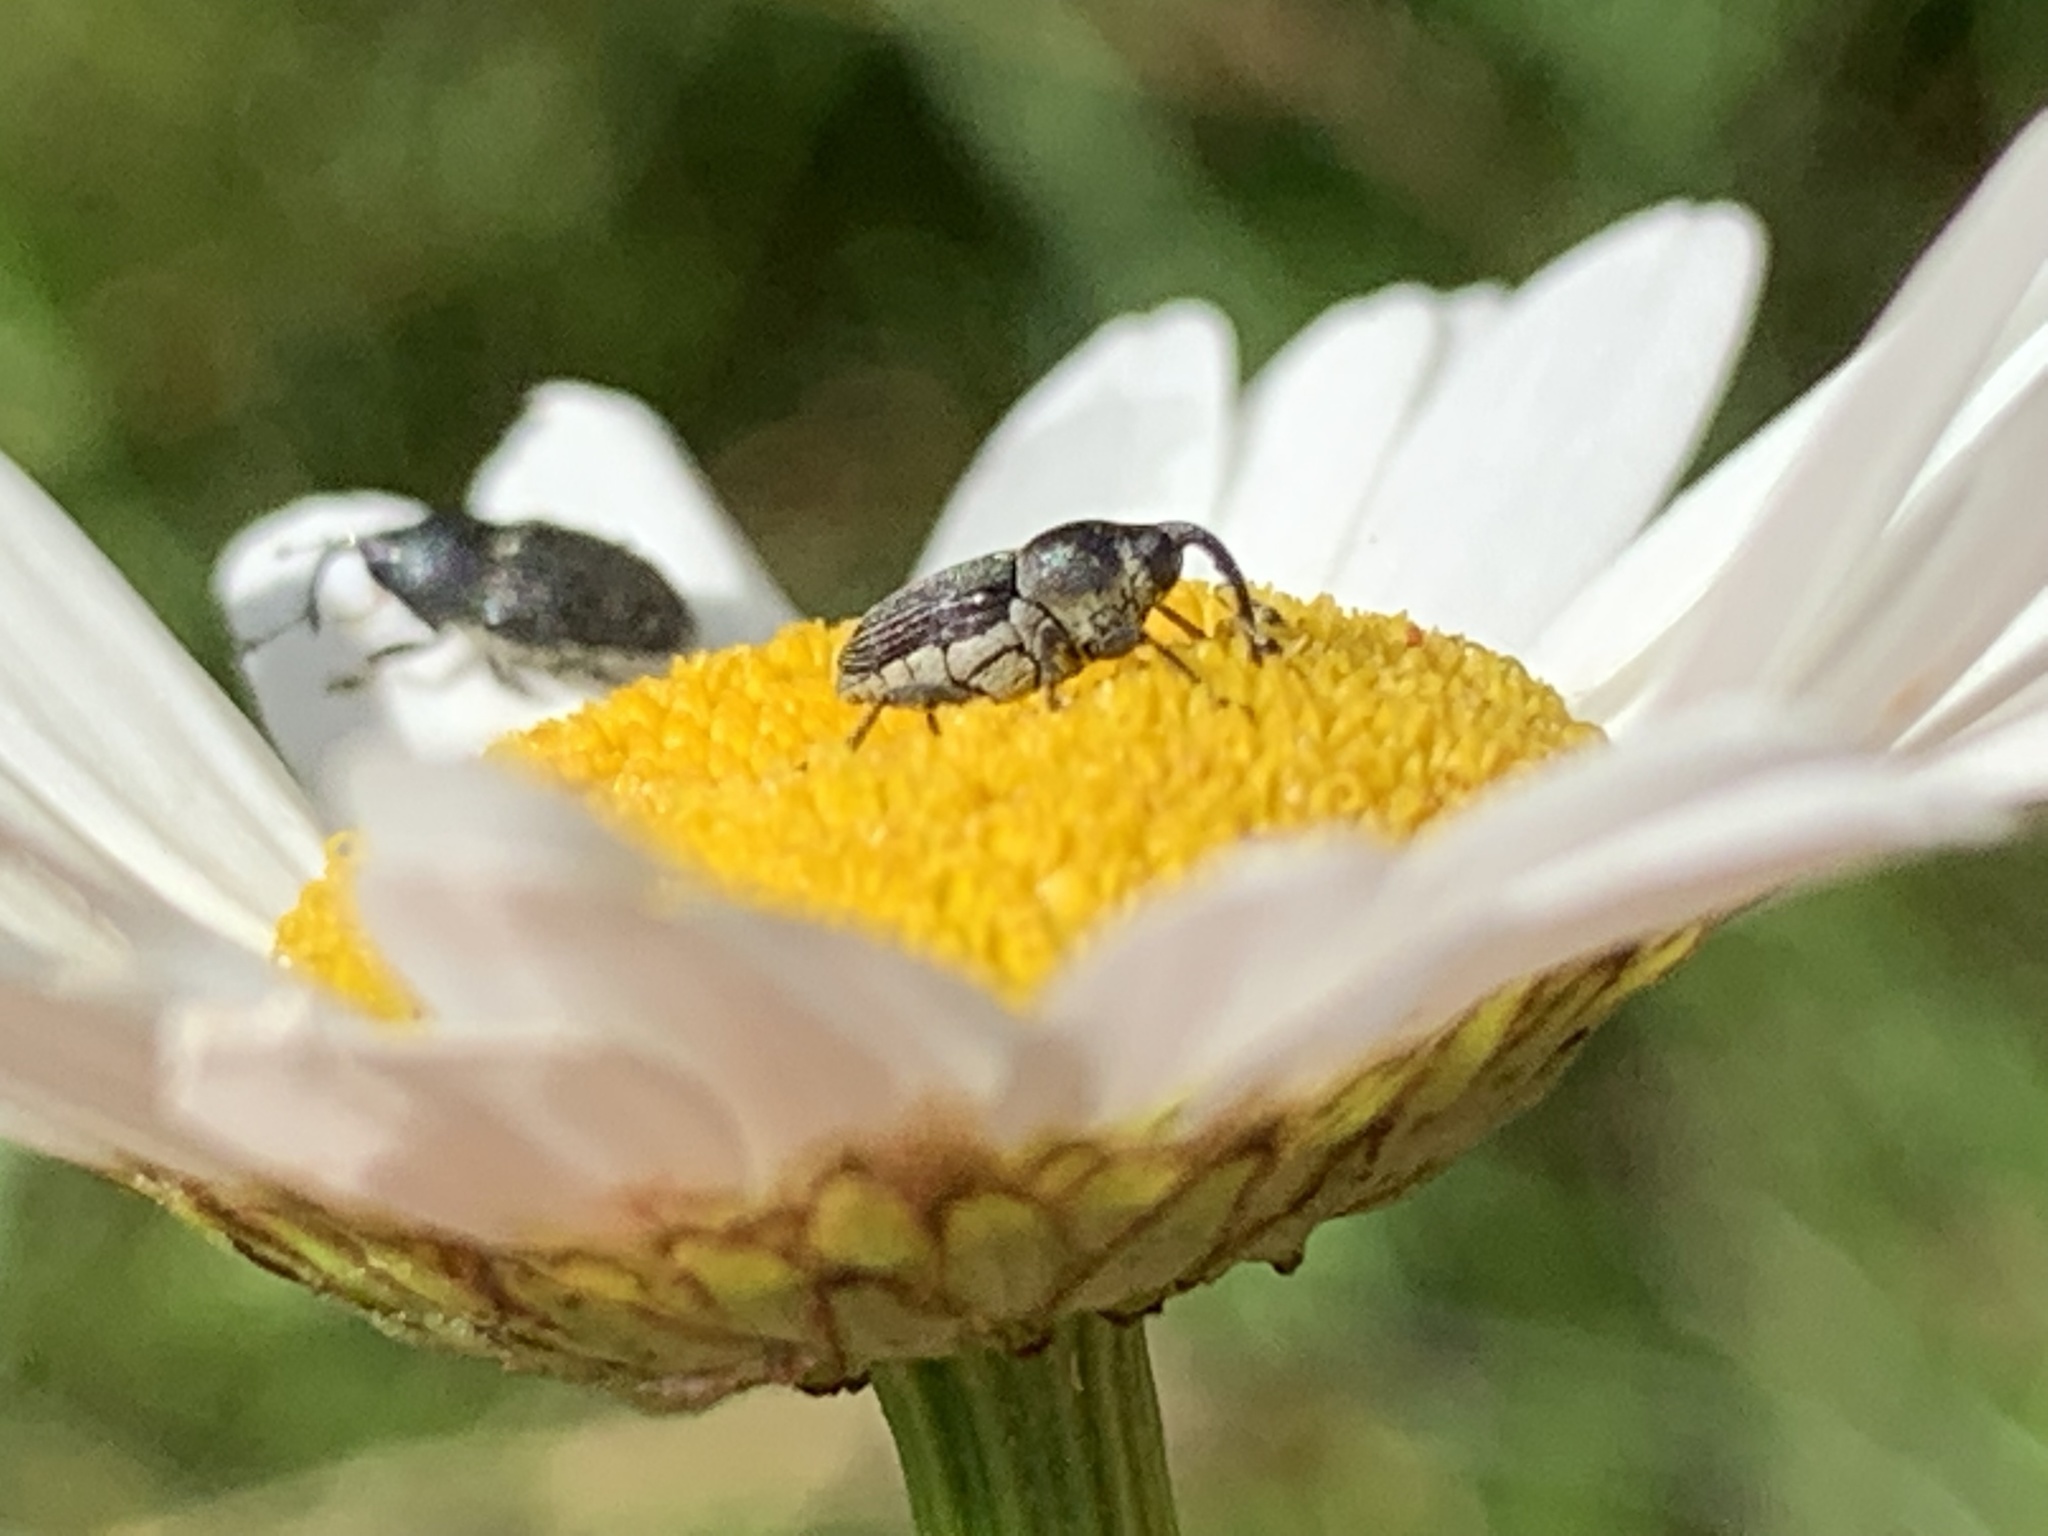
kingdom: Animalia
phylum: Arthropoda
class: Insecta
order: Coleoptera
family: Curculionidae
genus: Odontocorynus
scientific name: Odontocorynus salebrosus
